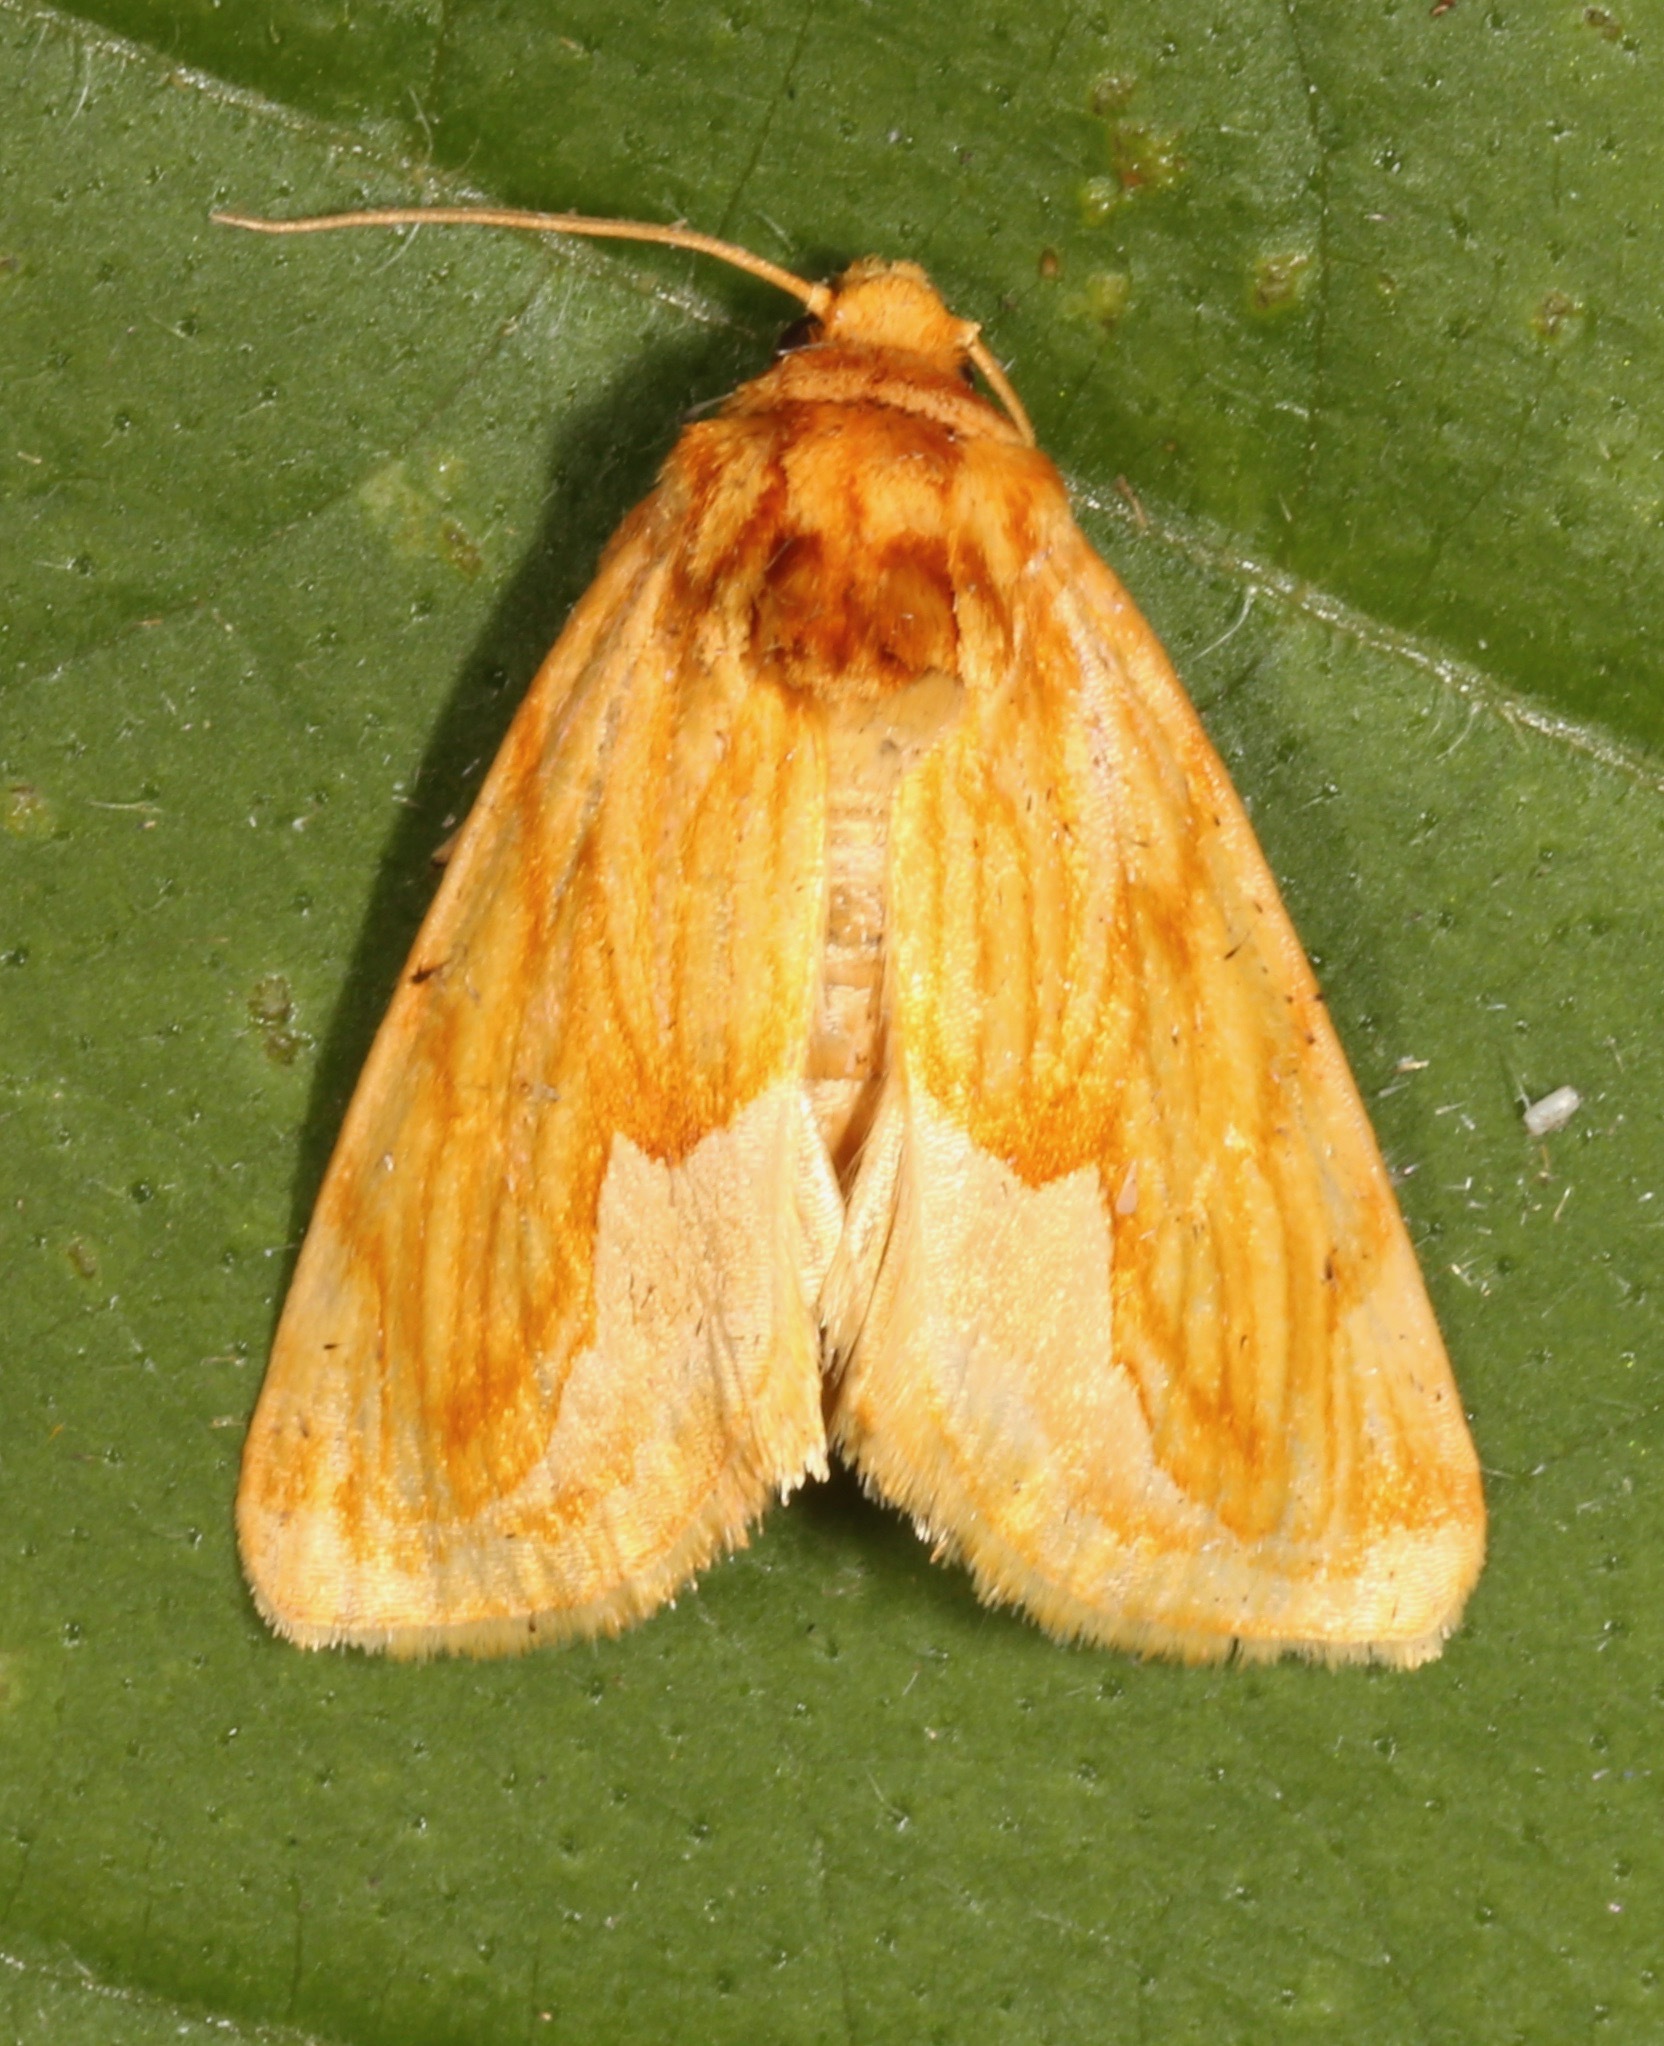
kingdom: Animalia
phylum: Arthropoda
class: Insecta
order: Lepidoptera
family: Noctuidae
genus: Cirrhophanus
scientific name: Cirrhophanus dyari
